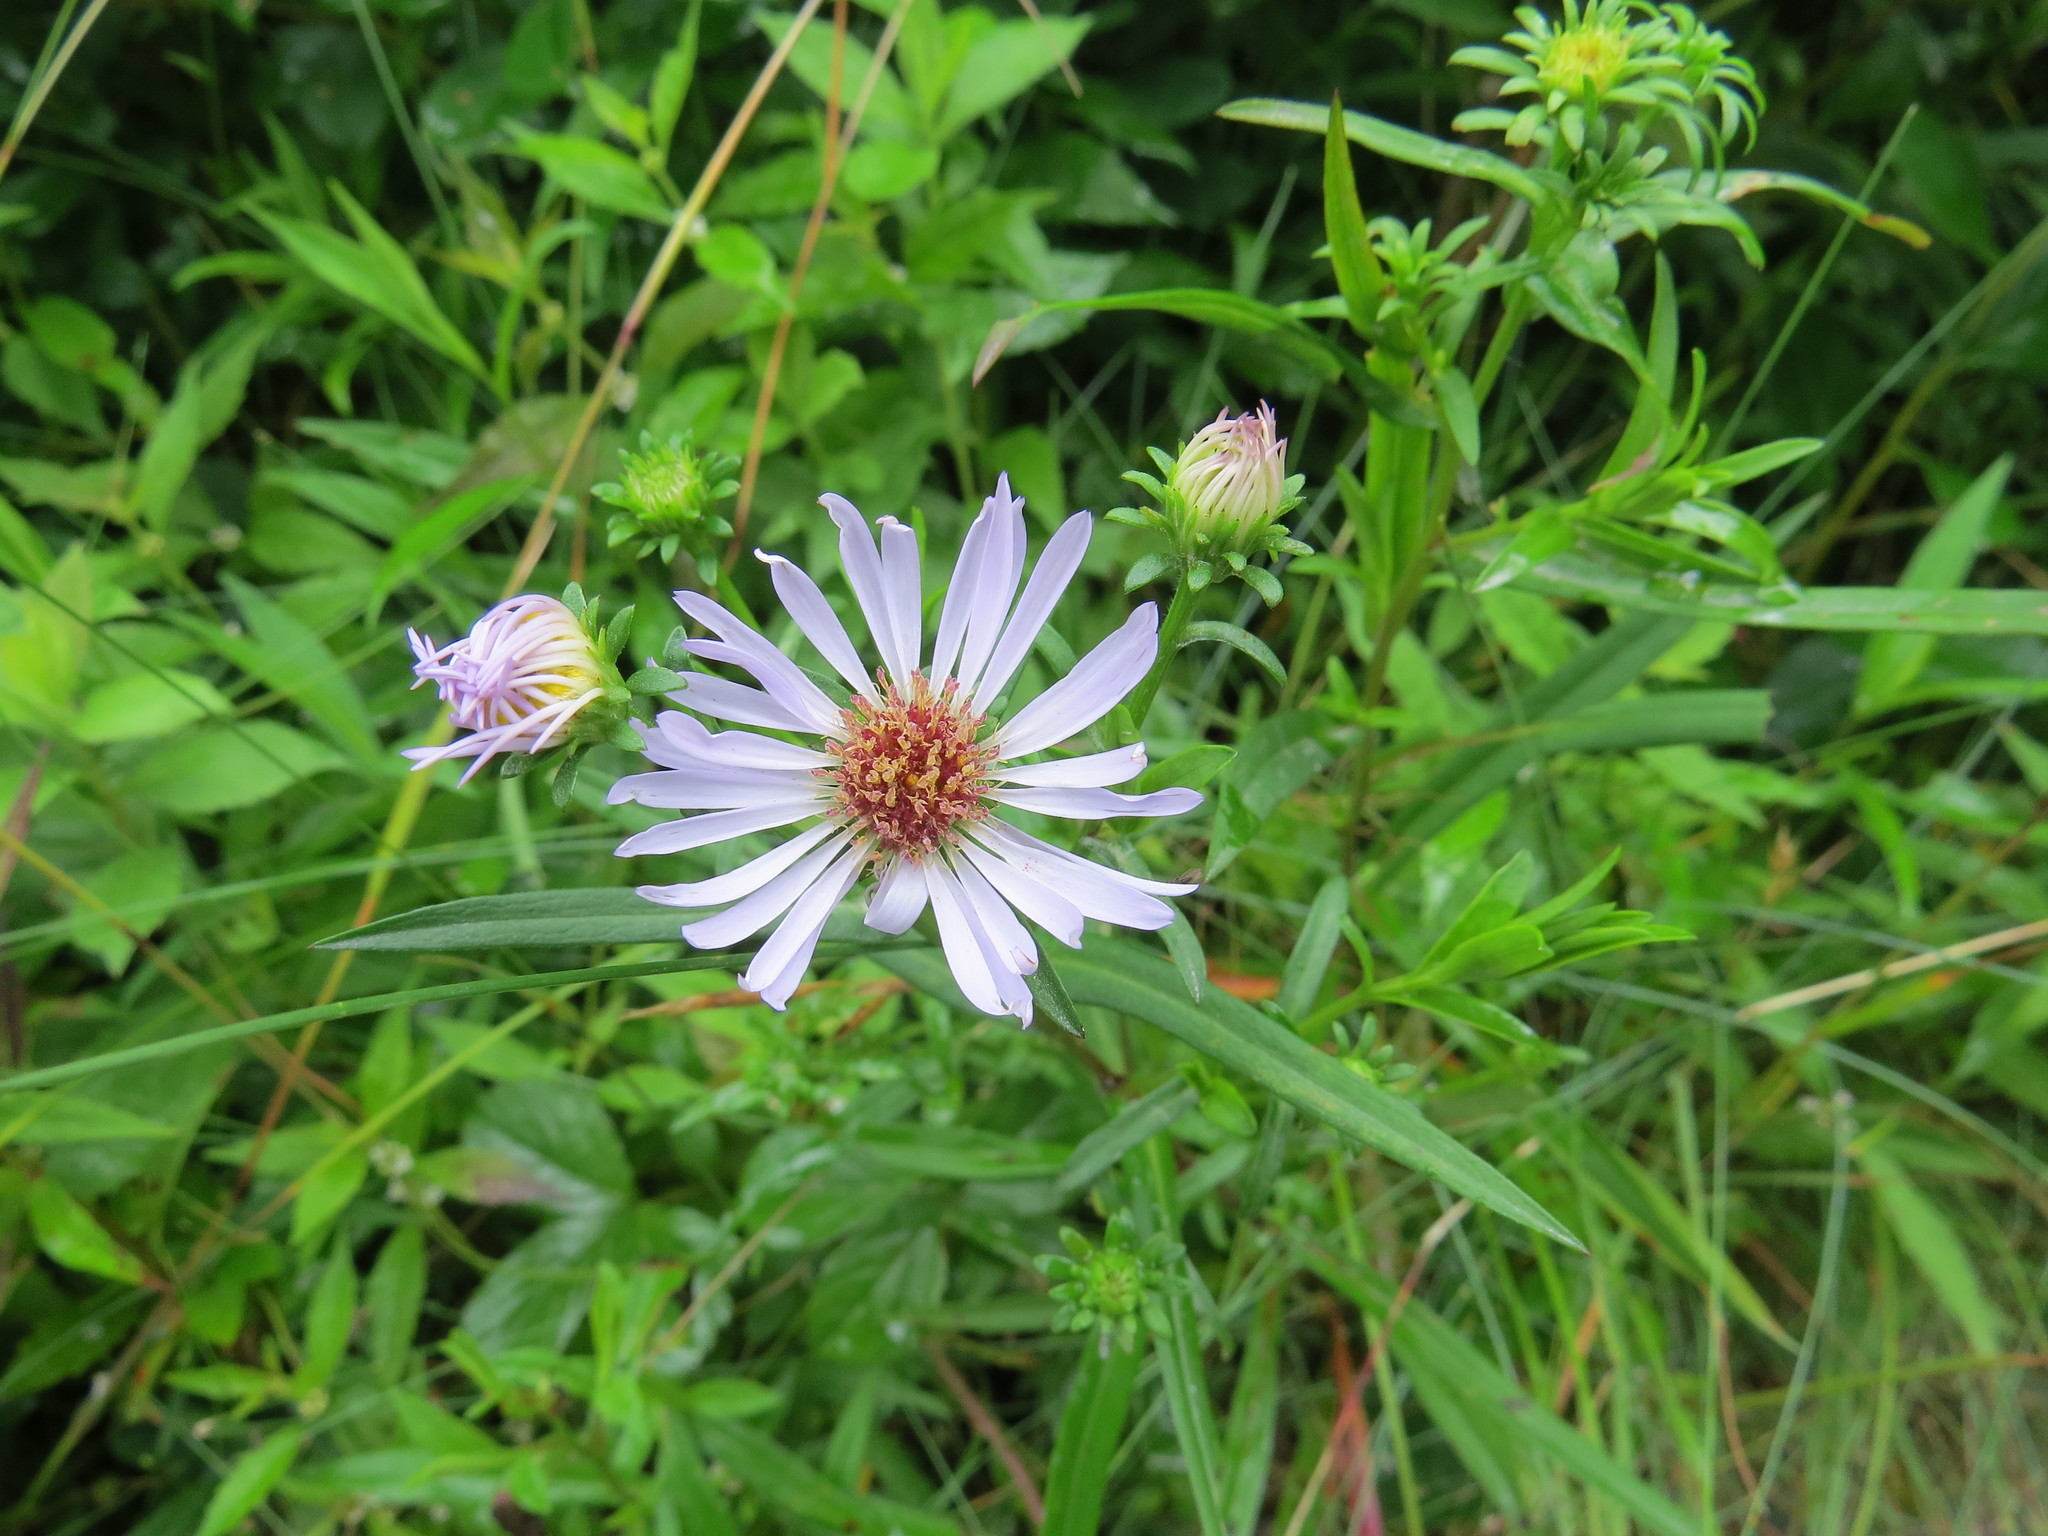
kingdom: Plantae
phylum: Tracheophyta
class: Magnoliopsida
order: Asterales
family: Asteraceae
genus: Symphyotrichum
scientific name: Symphyotrichum novi-belgii
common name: Michaelmas daisy
